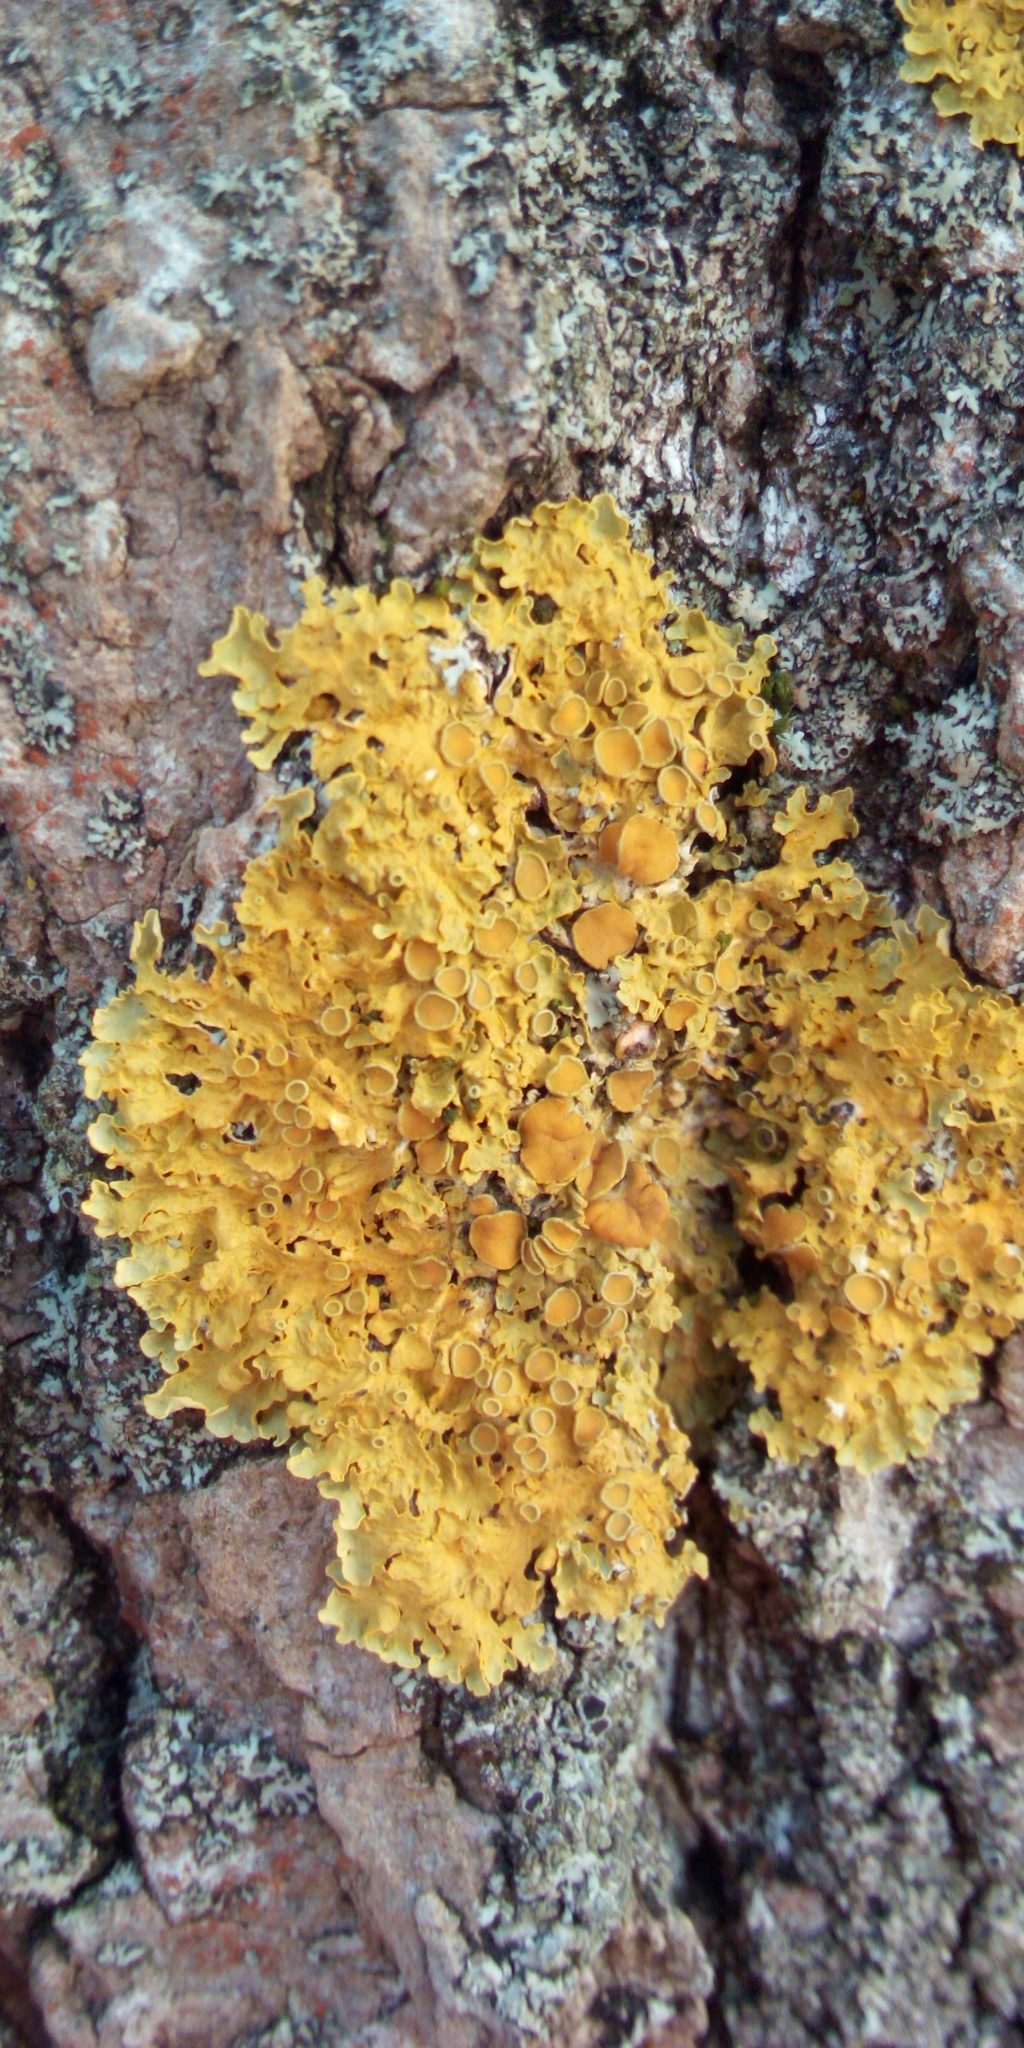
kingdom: Fungi
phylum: Ascomycota
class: Lecanoromycetes
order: Teloschistales
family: Teloschistaceae
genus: Xanthoria
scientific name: Xanthoria parietina
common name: Common orange lichen
